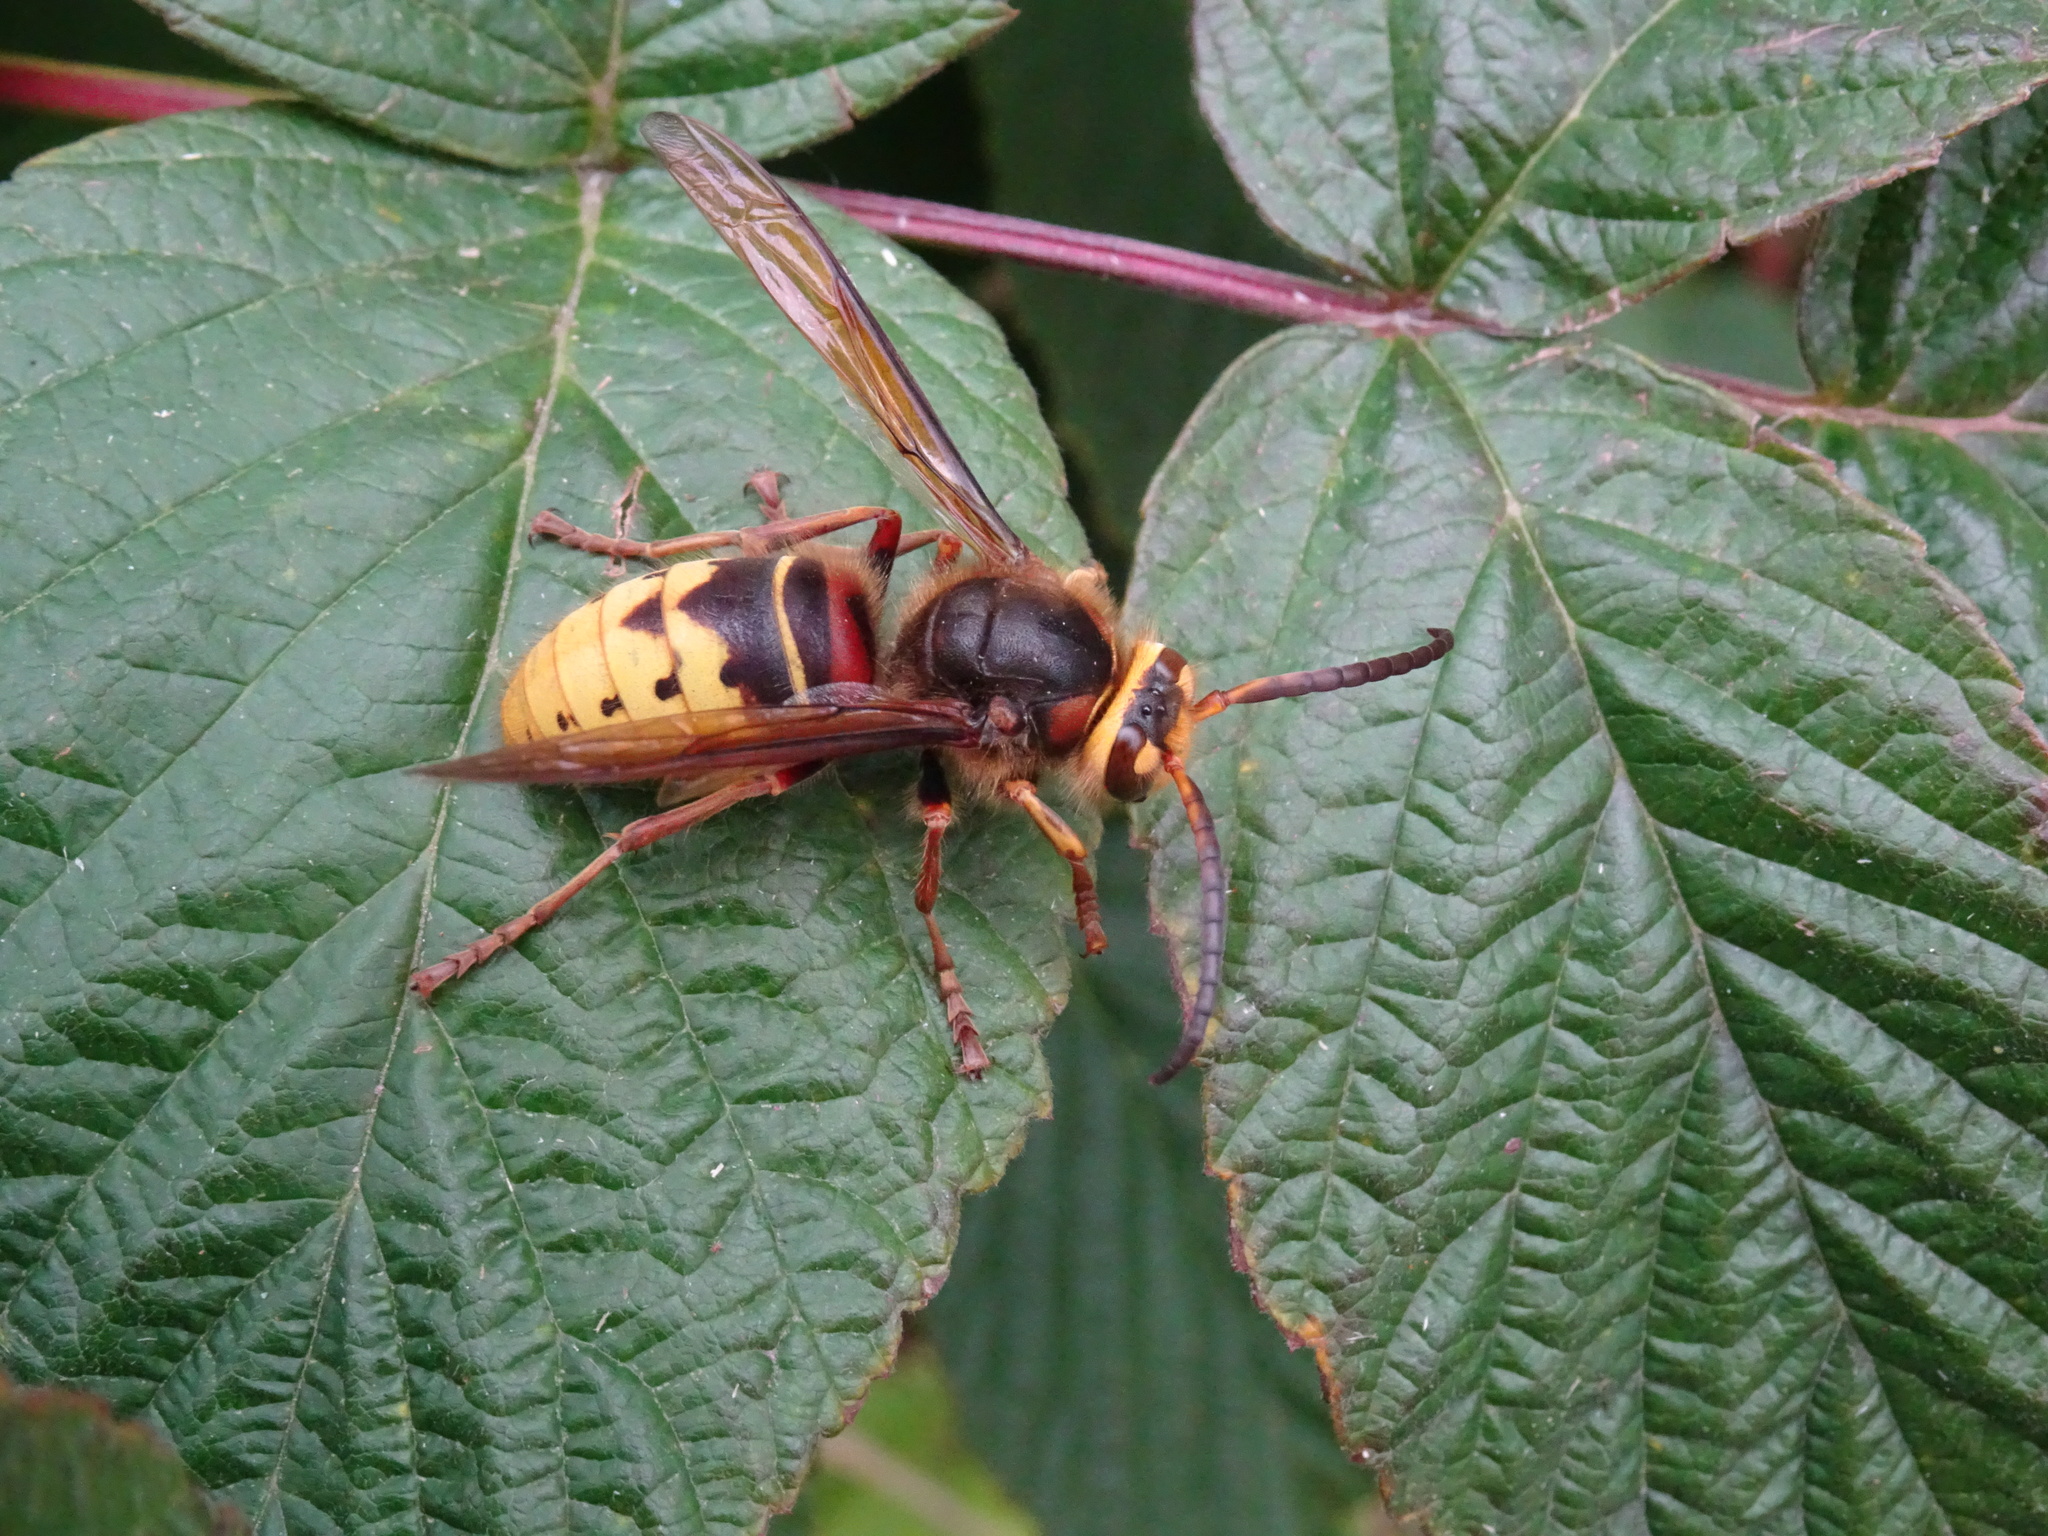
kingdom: Animalia
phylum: Arthropoda
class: Insecta
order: Hymenoptera
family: Vespidae
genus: Vespa
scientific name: Vespa crabro
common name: Hornet
